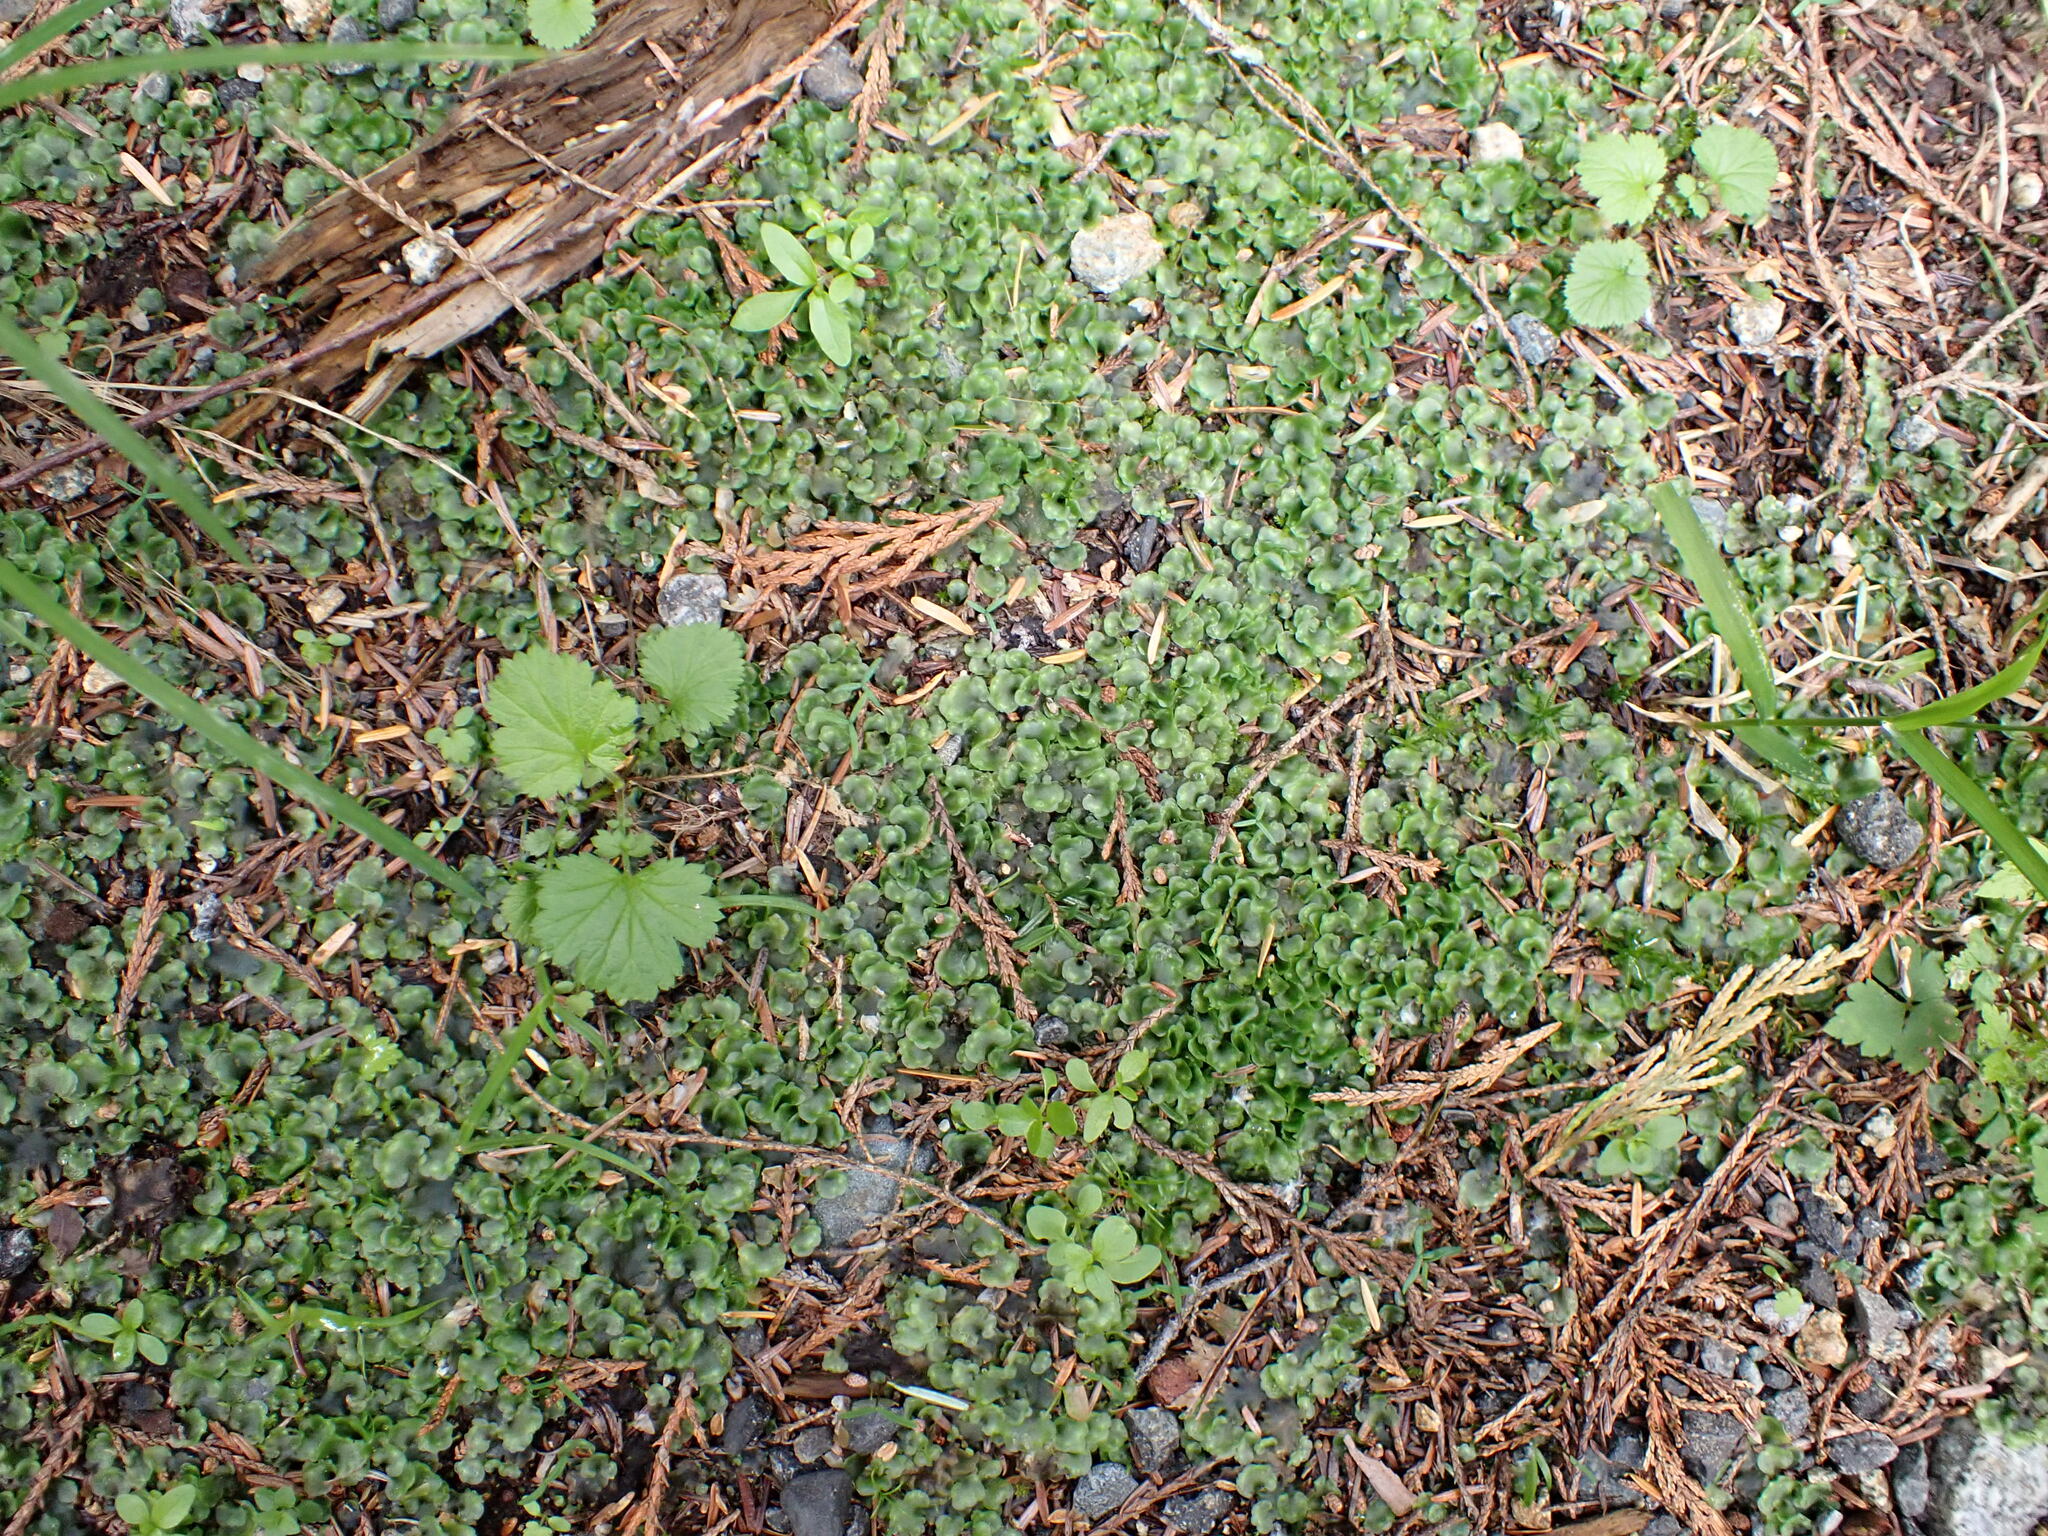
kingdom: Plantae
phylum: Marchantiophyta
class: Jungermanniopsida
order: Pelliales
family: Pelliaceae
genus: Pellia
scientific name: Pellia neesiana
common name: Nees  pellia
